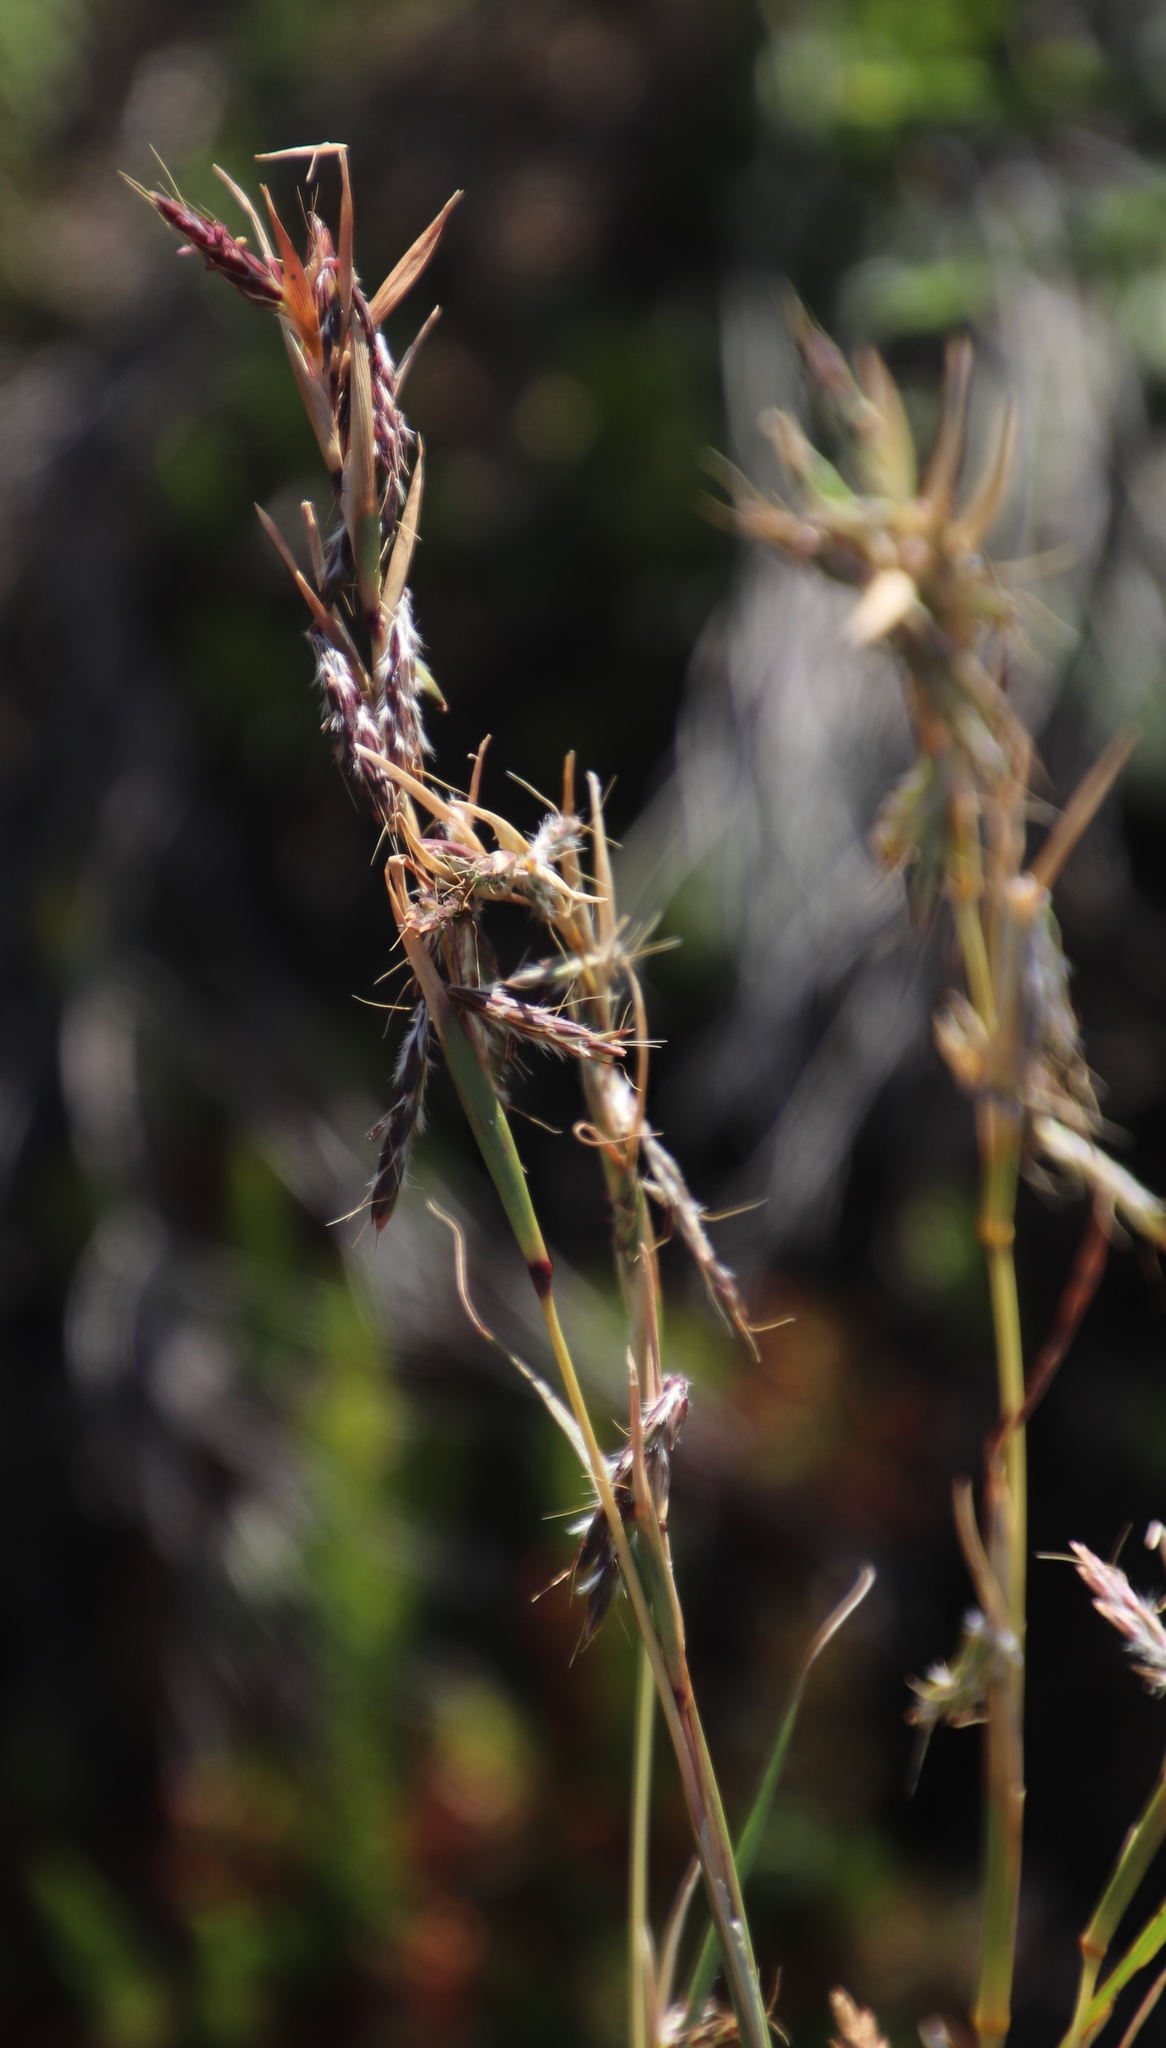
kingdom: Plantae
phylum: Tracheophyta
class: Liliopsida
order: Poales
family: Poaceae
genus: Cymbopogon
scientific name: Cymbopogon marginatus
